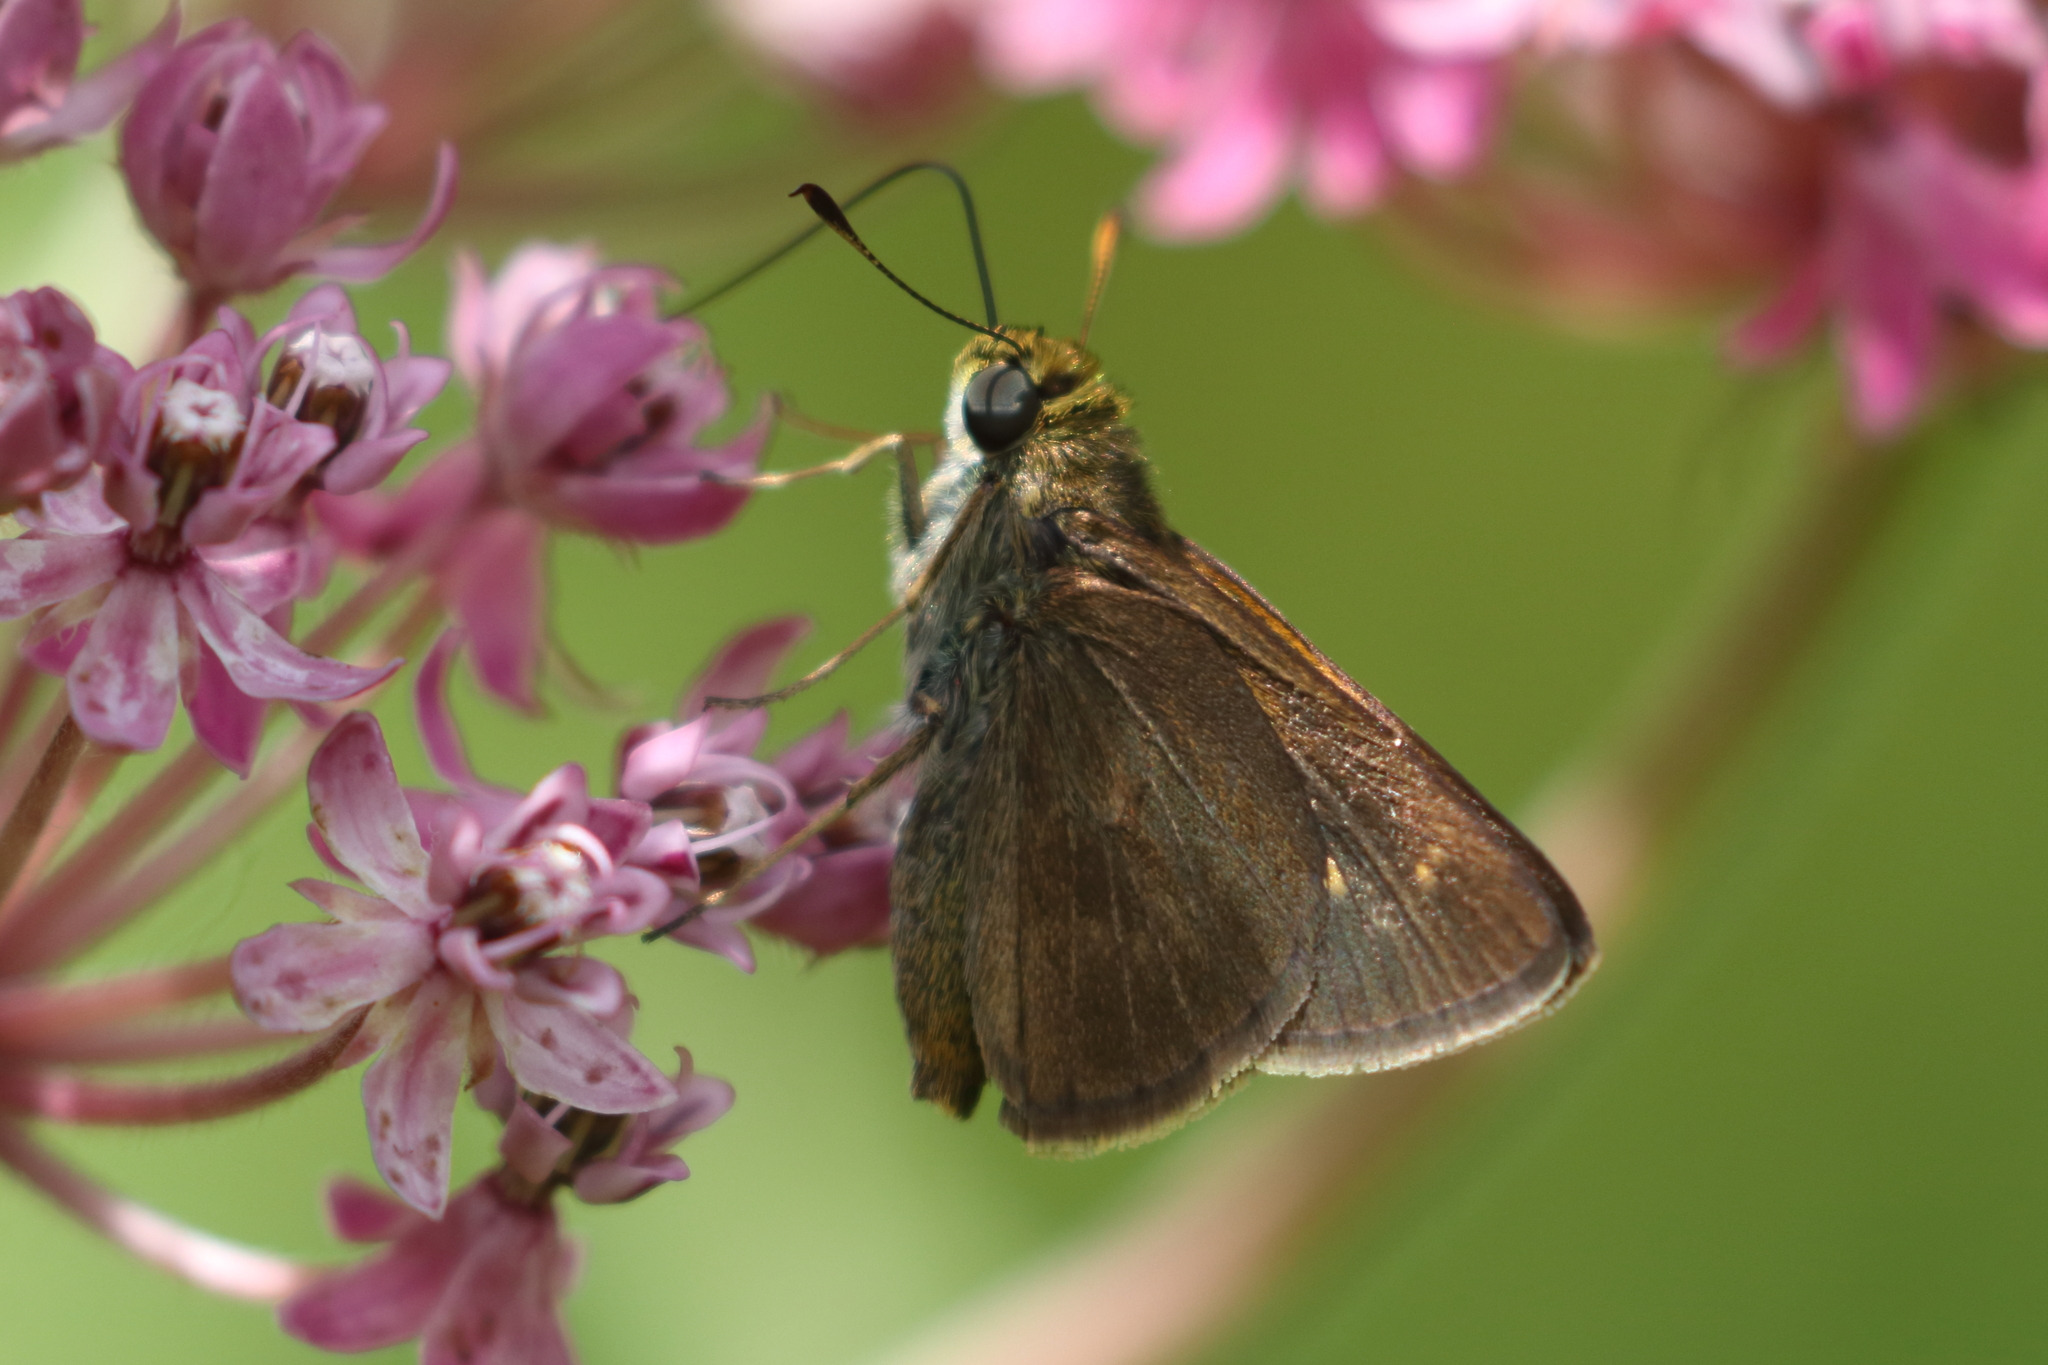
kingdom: Animalia
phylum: Arthropoda
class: Insecta
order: Lepidoptera
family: Hesperiidae
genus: Euphyes
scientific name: Euphyes vestris
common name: Dun skipper
